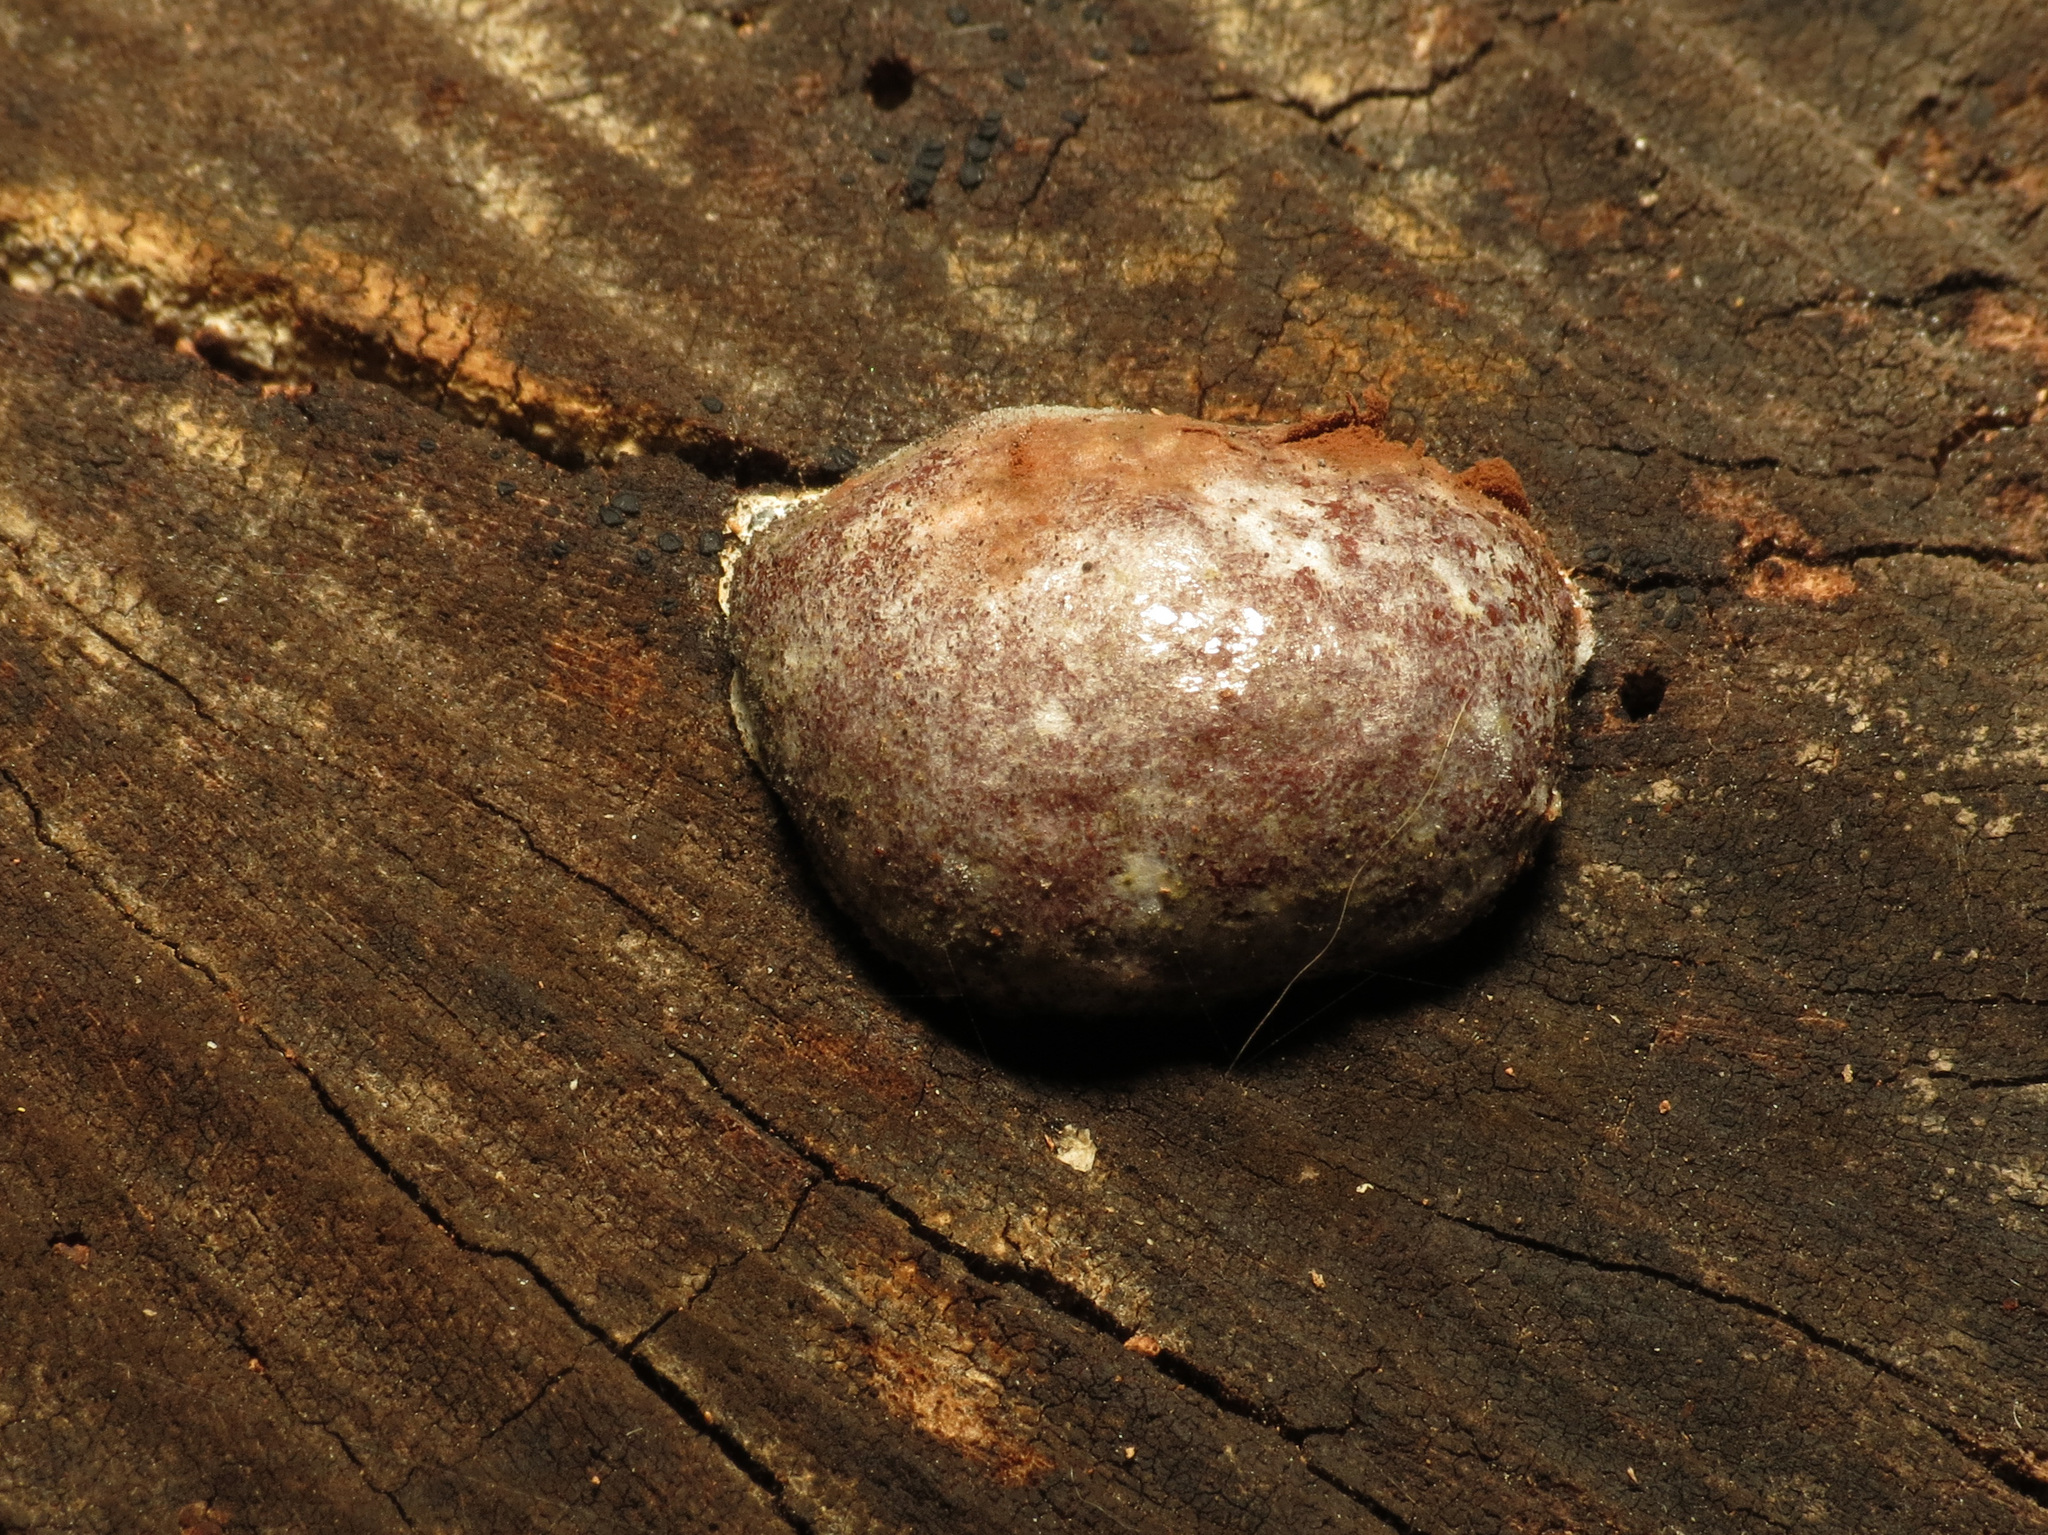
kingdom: Protozoa
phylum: Mycetozoa
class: Myxomycetes
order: Cribrariales
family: Tubiferaceae
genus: Reticularia
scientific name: Reticularia lycoperdon
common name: False puffball
